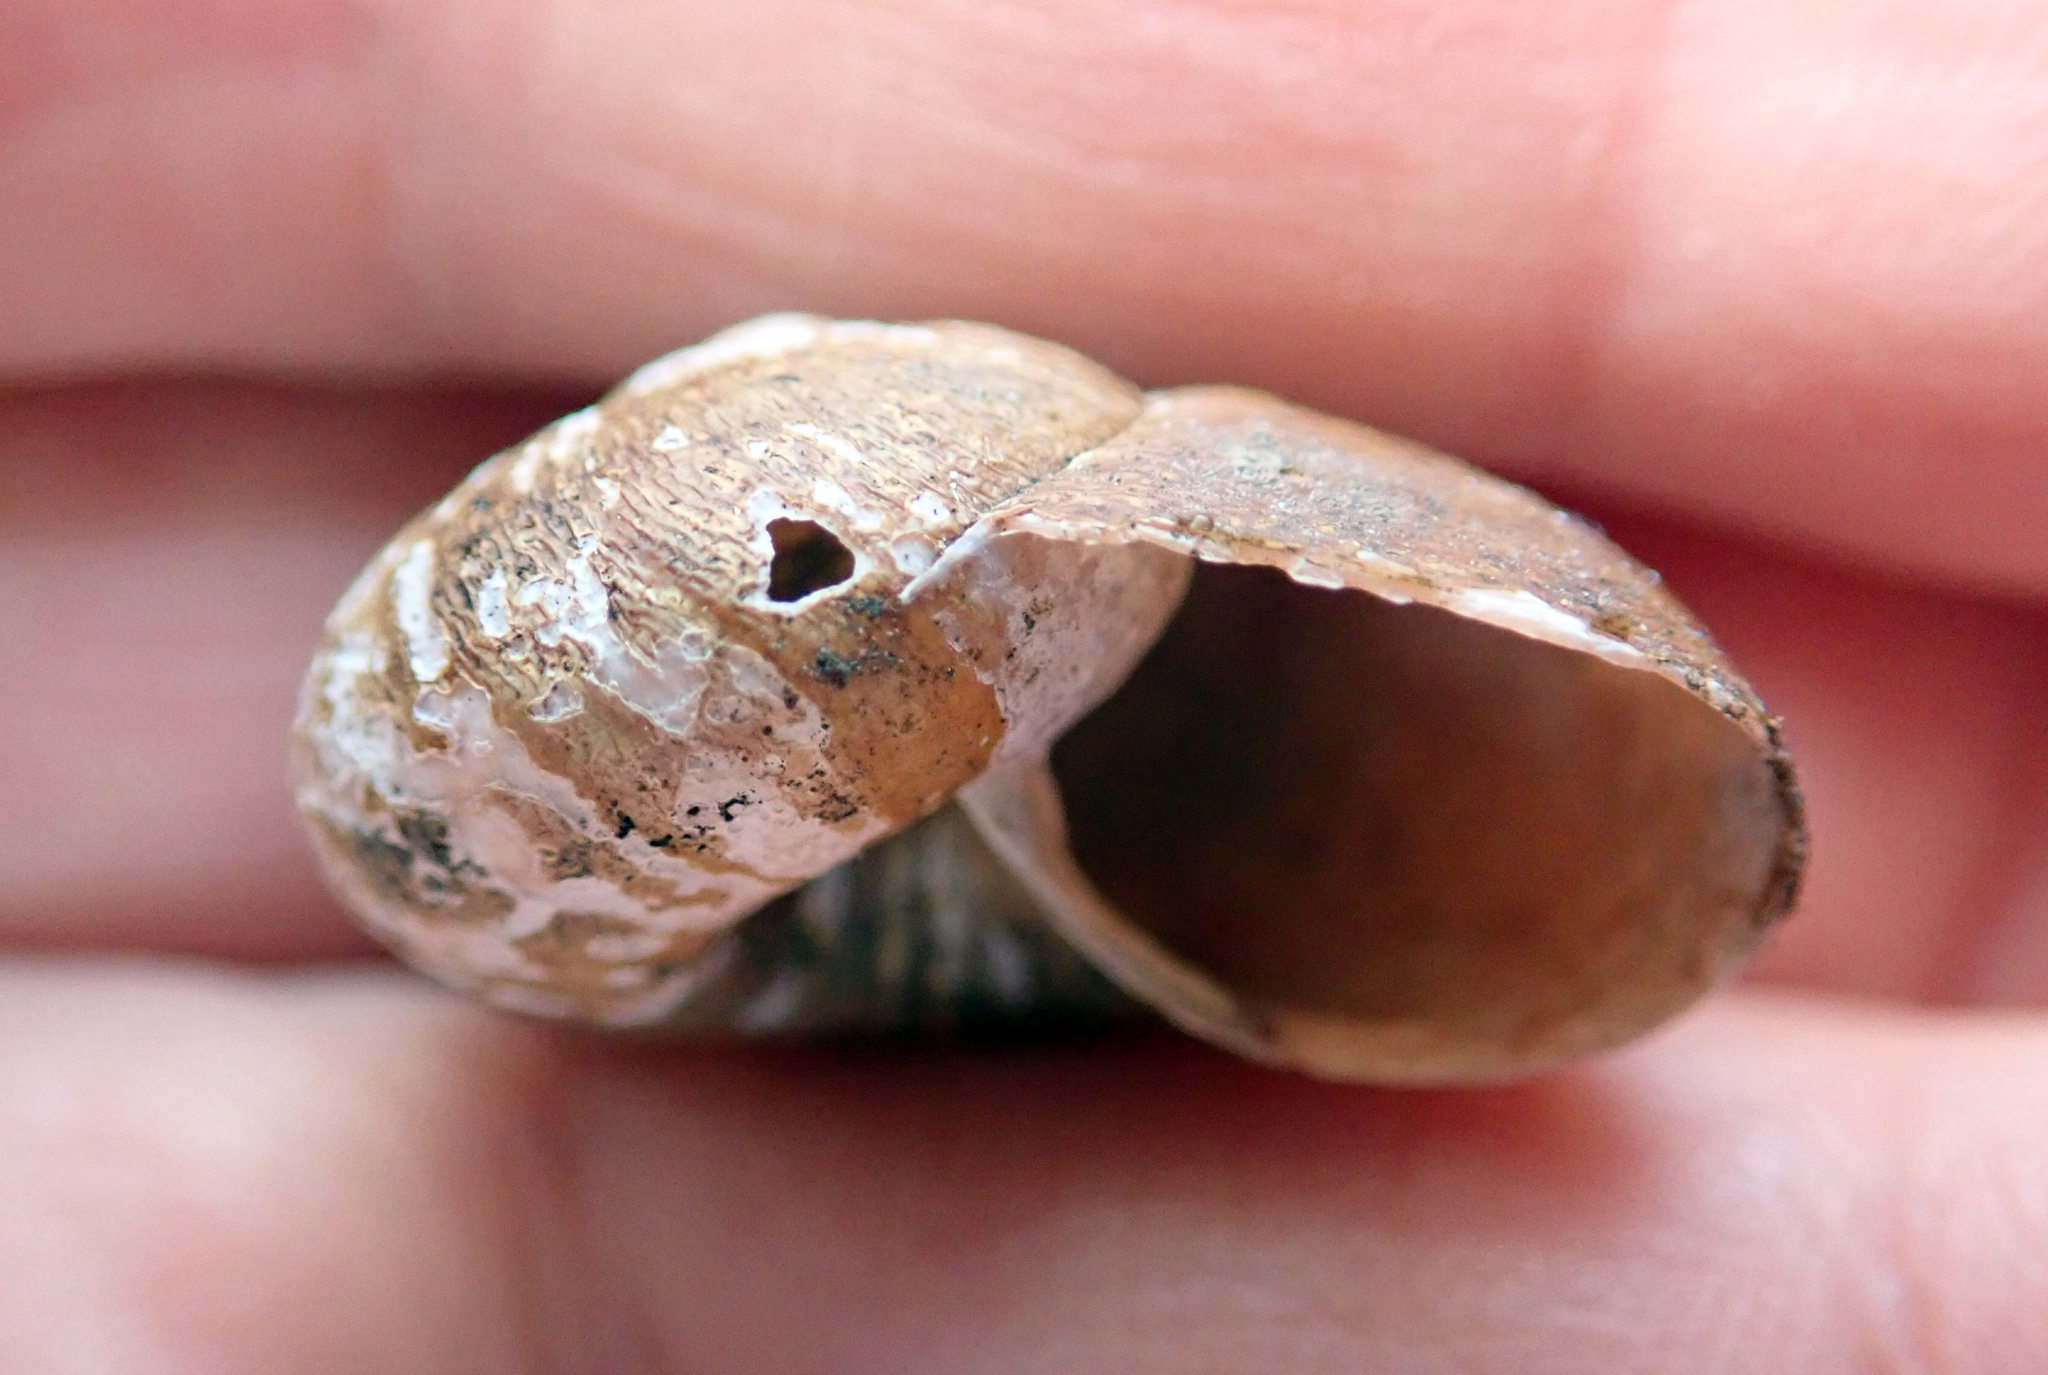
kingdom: Animalia
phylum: Mollusca
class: Gastropoda
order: Stylommatophora
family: Rhytididae
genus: Rhytida
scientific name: Rhytida greenwoodi
